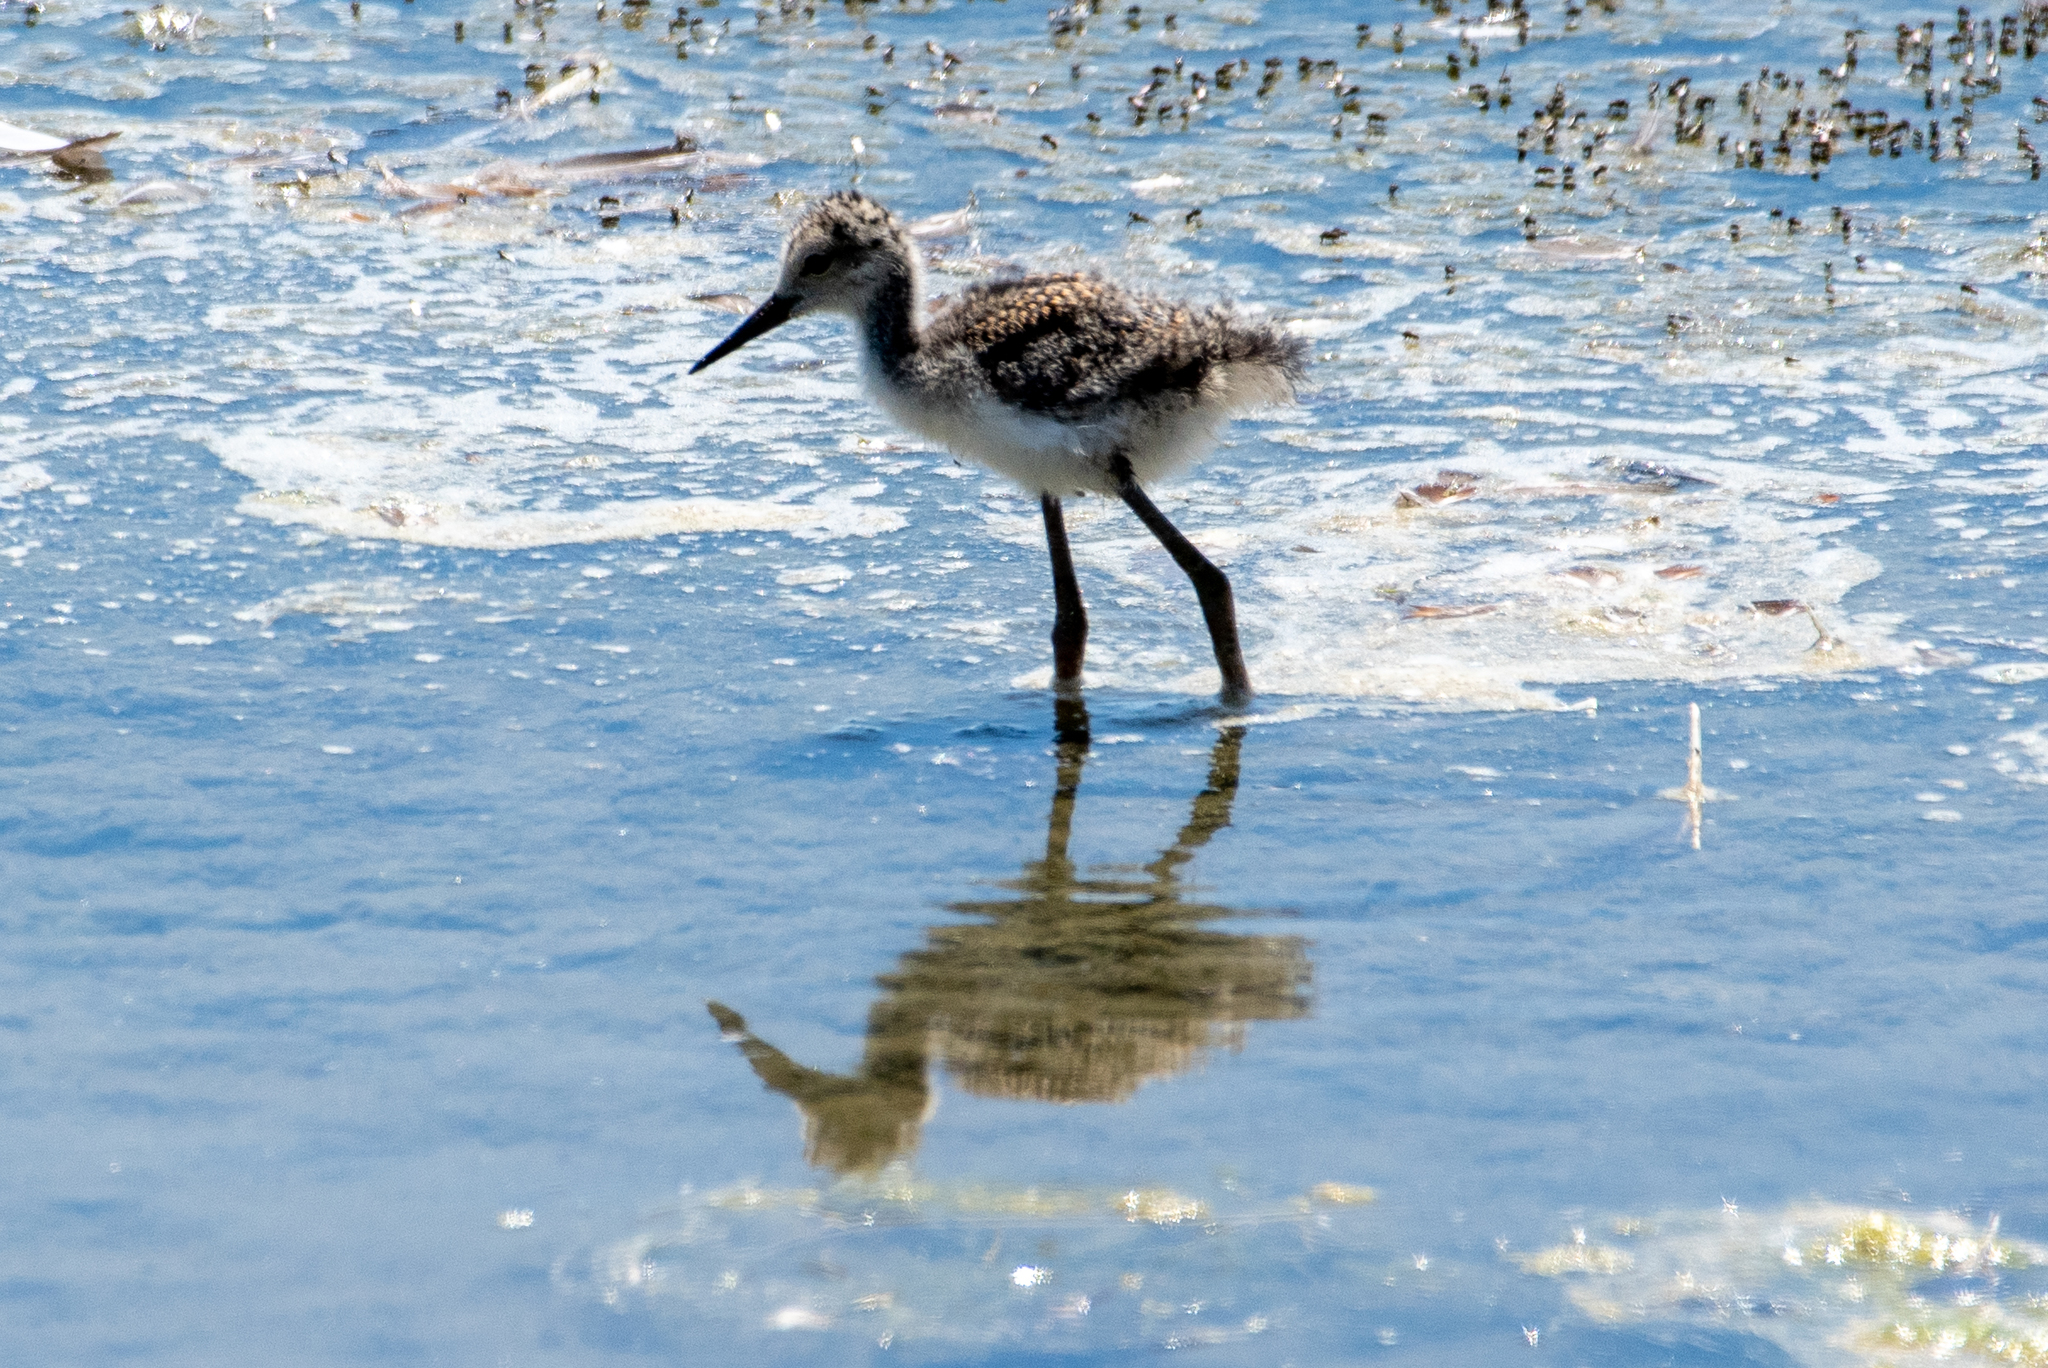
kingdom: Animalia
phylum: Chordata
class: Aves
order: Charadriiformes
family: Recurvirostridae
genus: Himantopus
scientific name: Himantopus mexicanus
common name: Black-necked stilt
